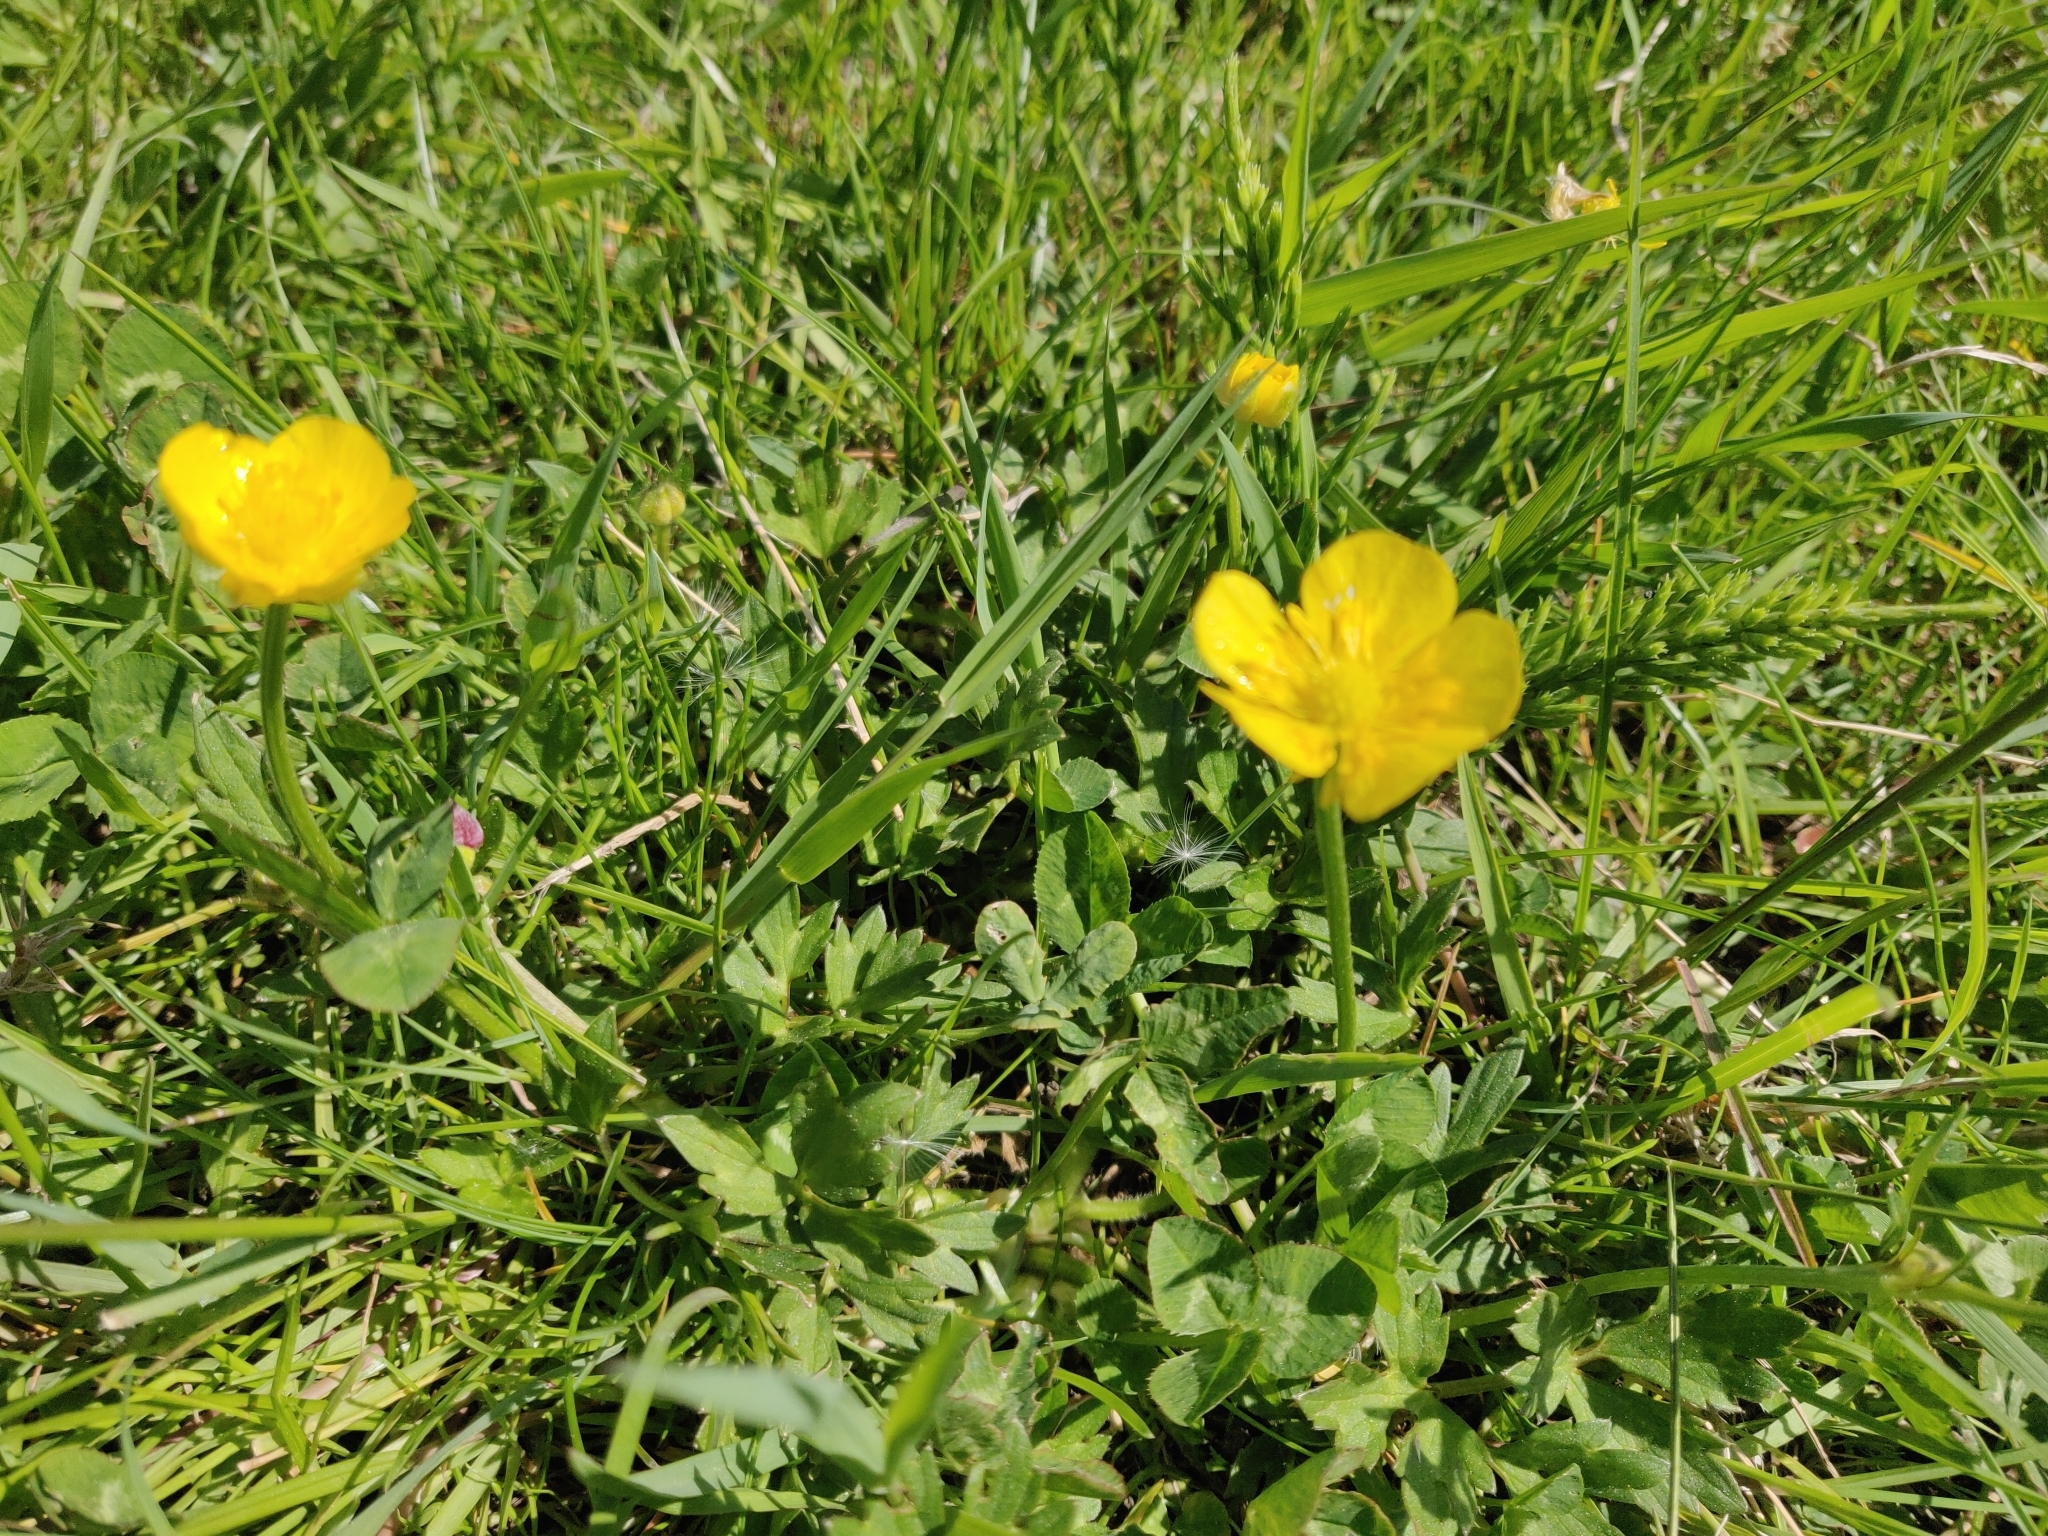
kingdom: Plantae
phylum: Tracheophyta
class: Magnoliopsida
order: Ranunculales
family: Ranunculaceae
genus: Ranunculus
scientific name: Ranunculus bulbosus
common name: Bulbous buttercup
